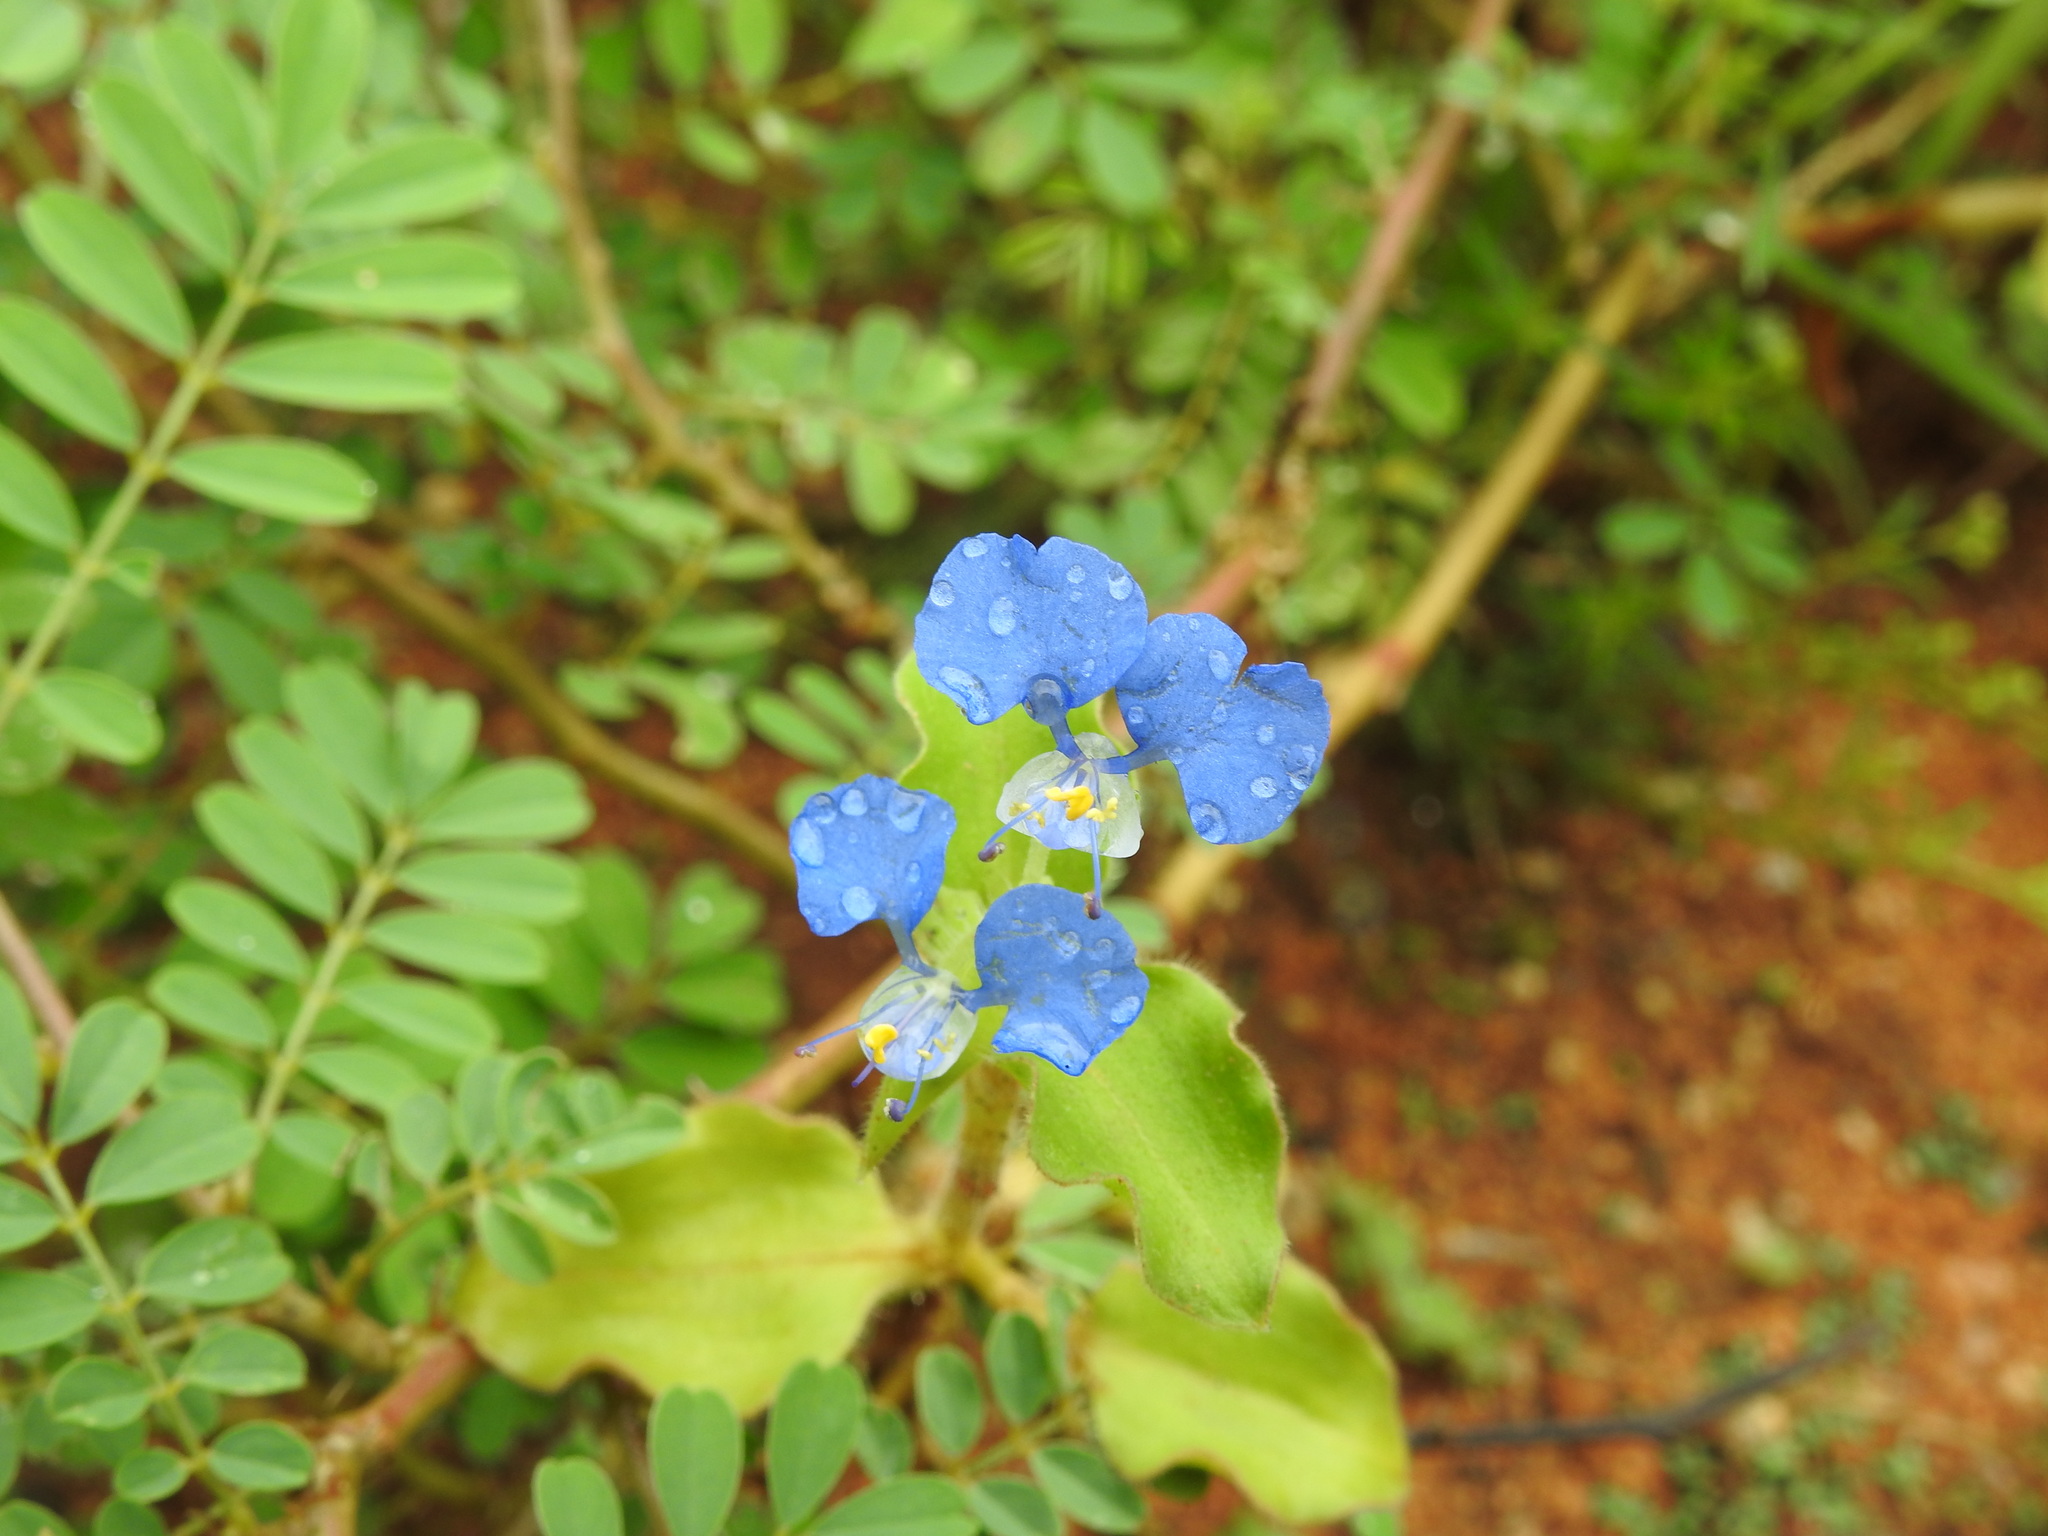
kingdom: Plantae
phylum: Tracheophyta
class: Liliopsida
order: Commelinales
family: Commelinaceae
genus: Commelina
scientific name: Commelina benghalensis
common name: Jio
